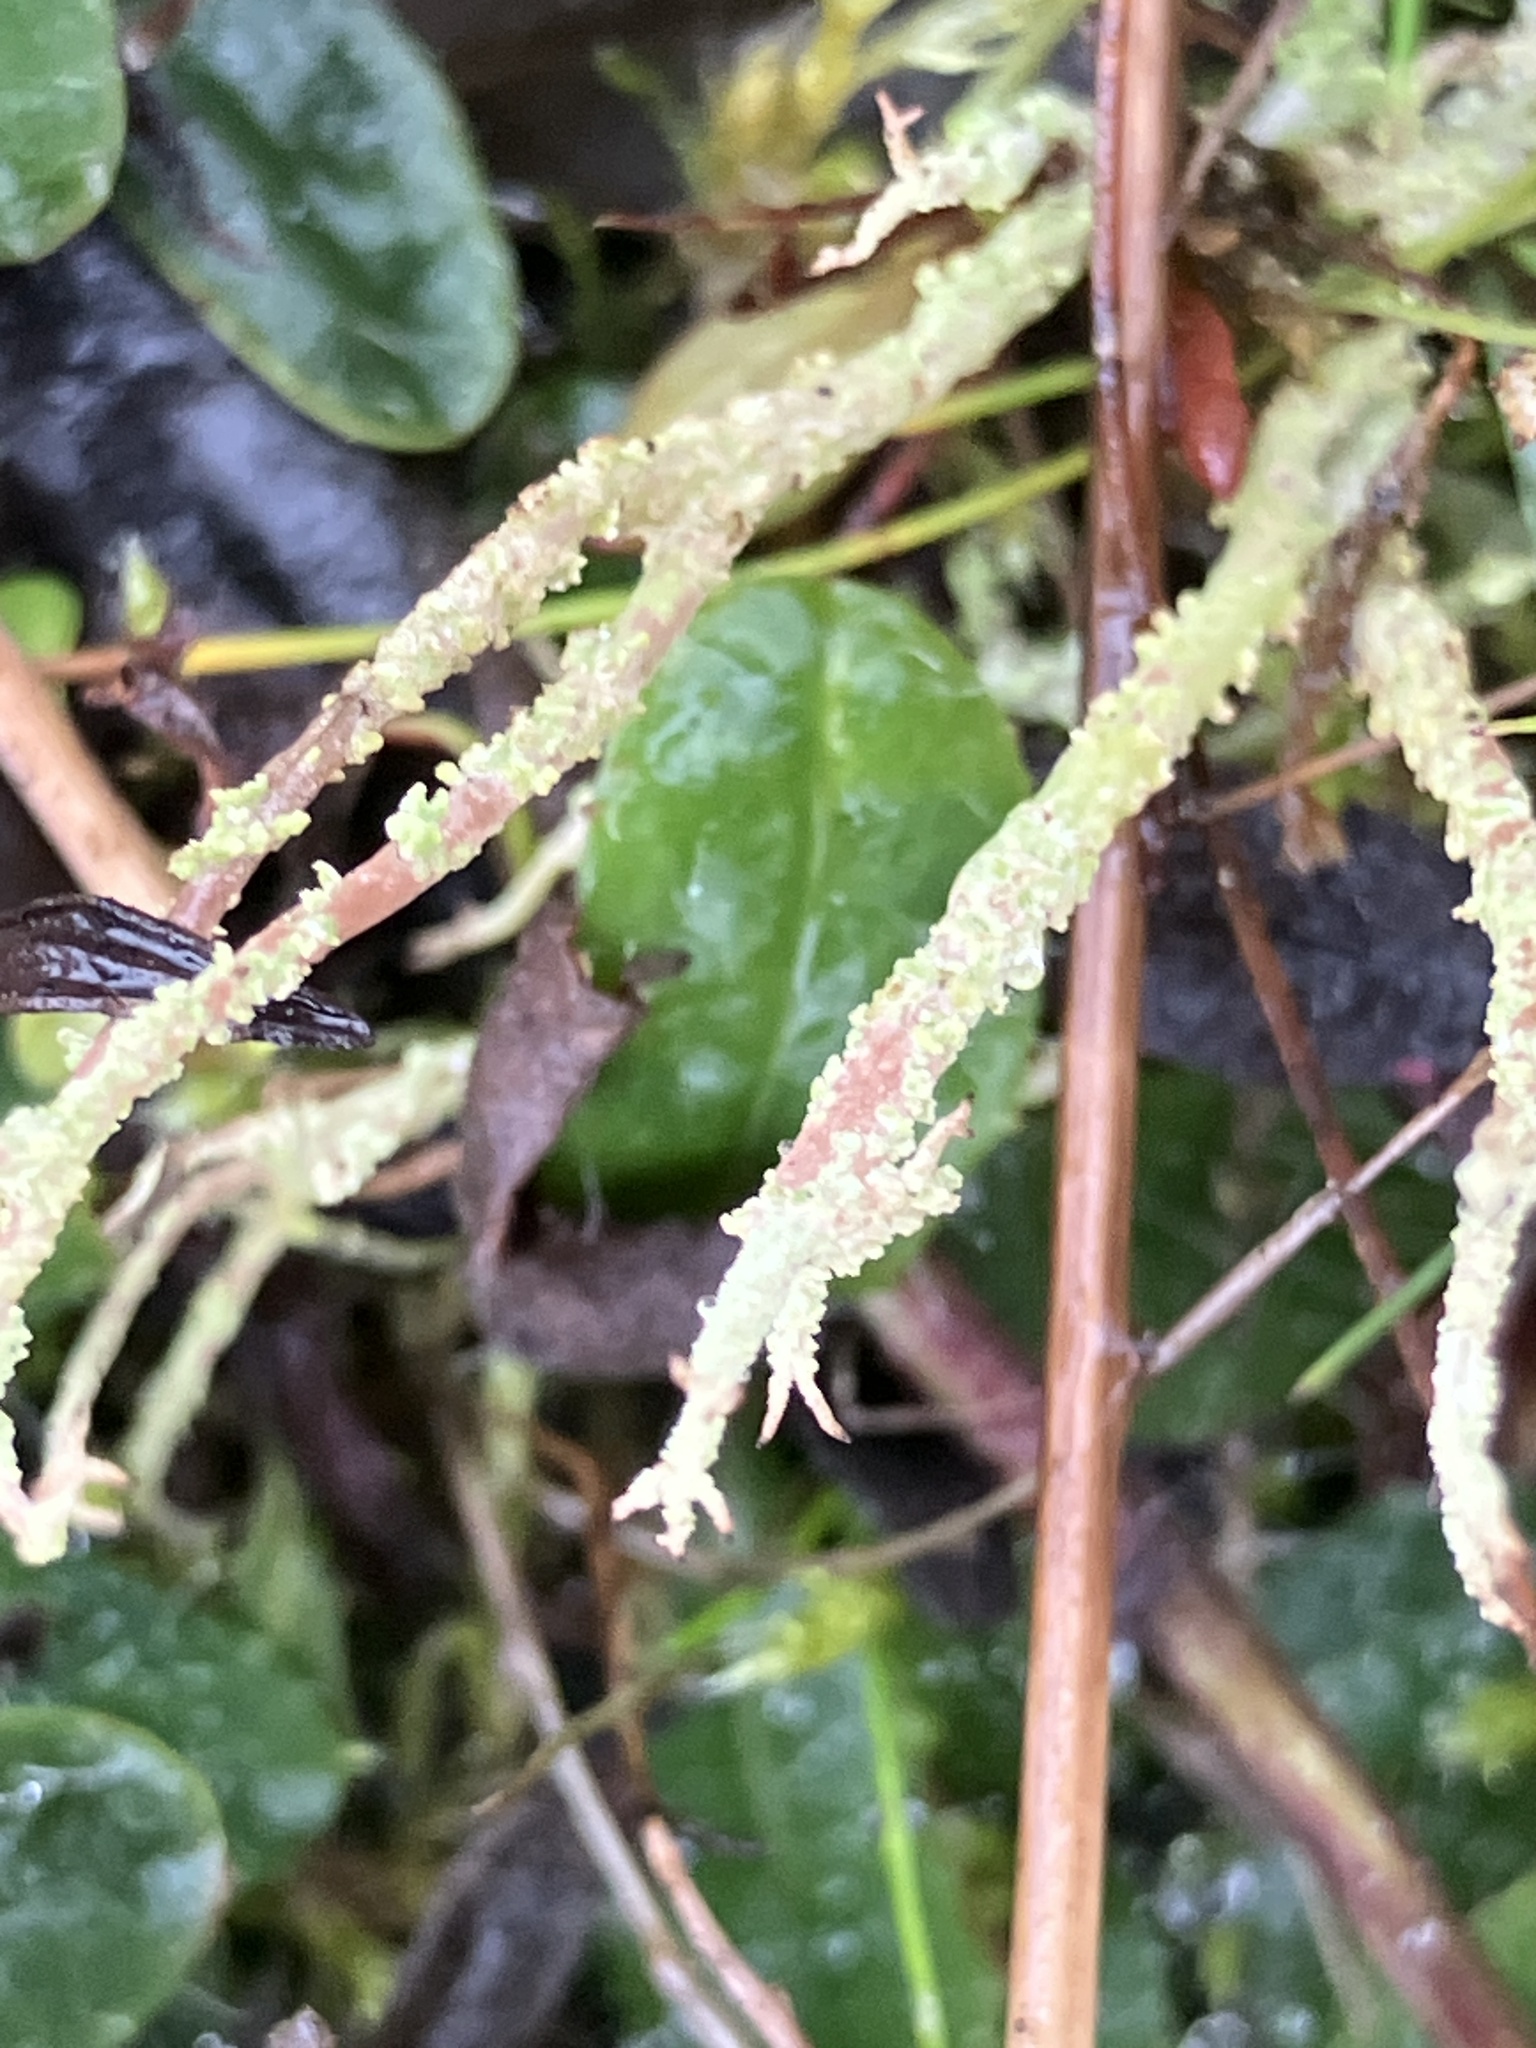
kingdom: Fungi
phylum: Ascomycota
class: Lecanoromycetes
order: Lecanorales
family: Cladoniaceae
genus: Cladonia
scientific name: Cladonia scabriuscula
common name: Mealy forked clad lichen
